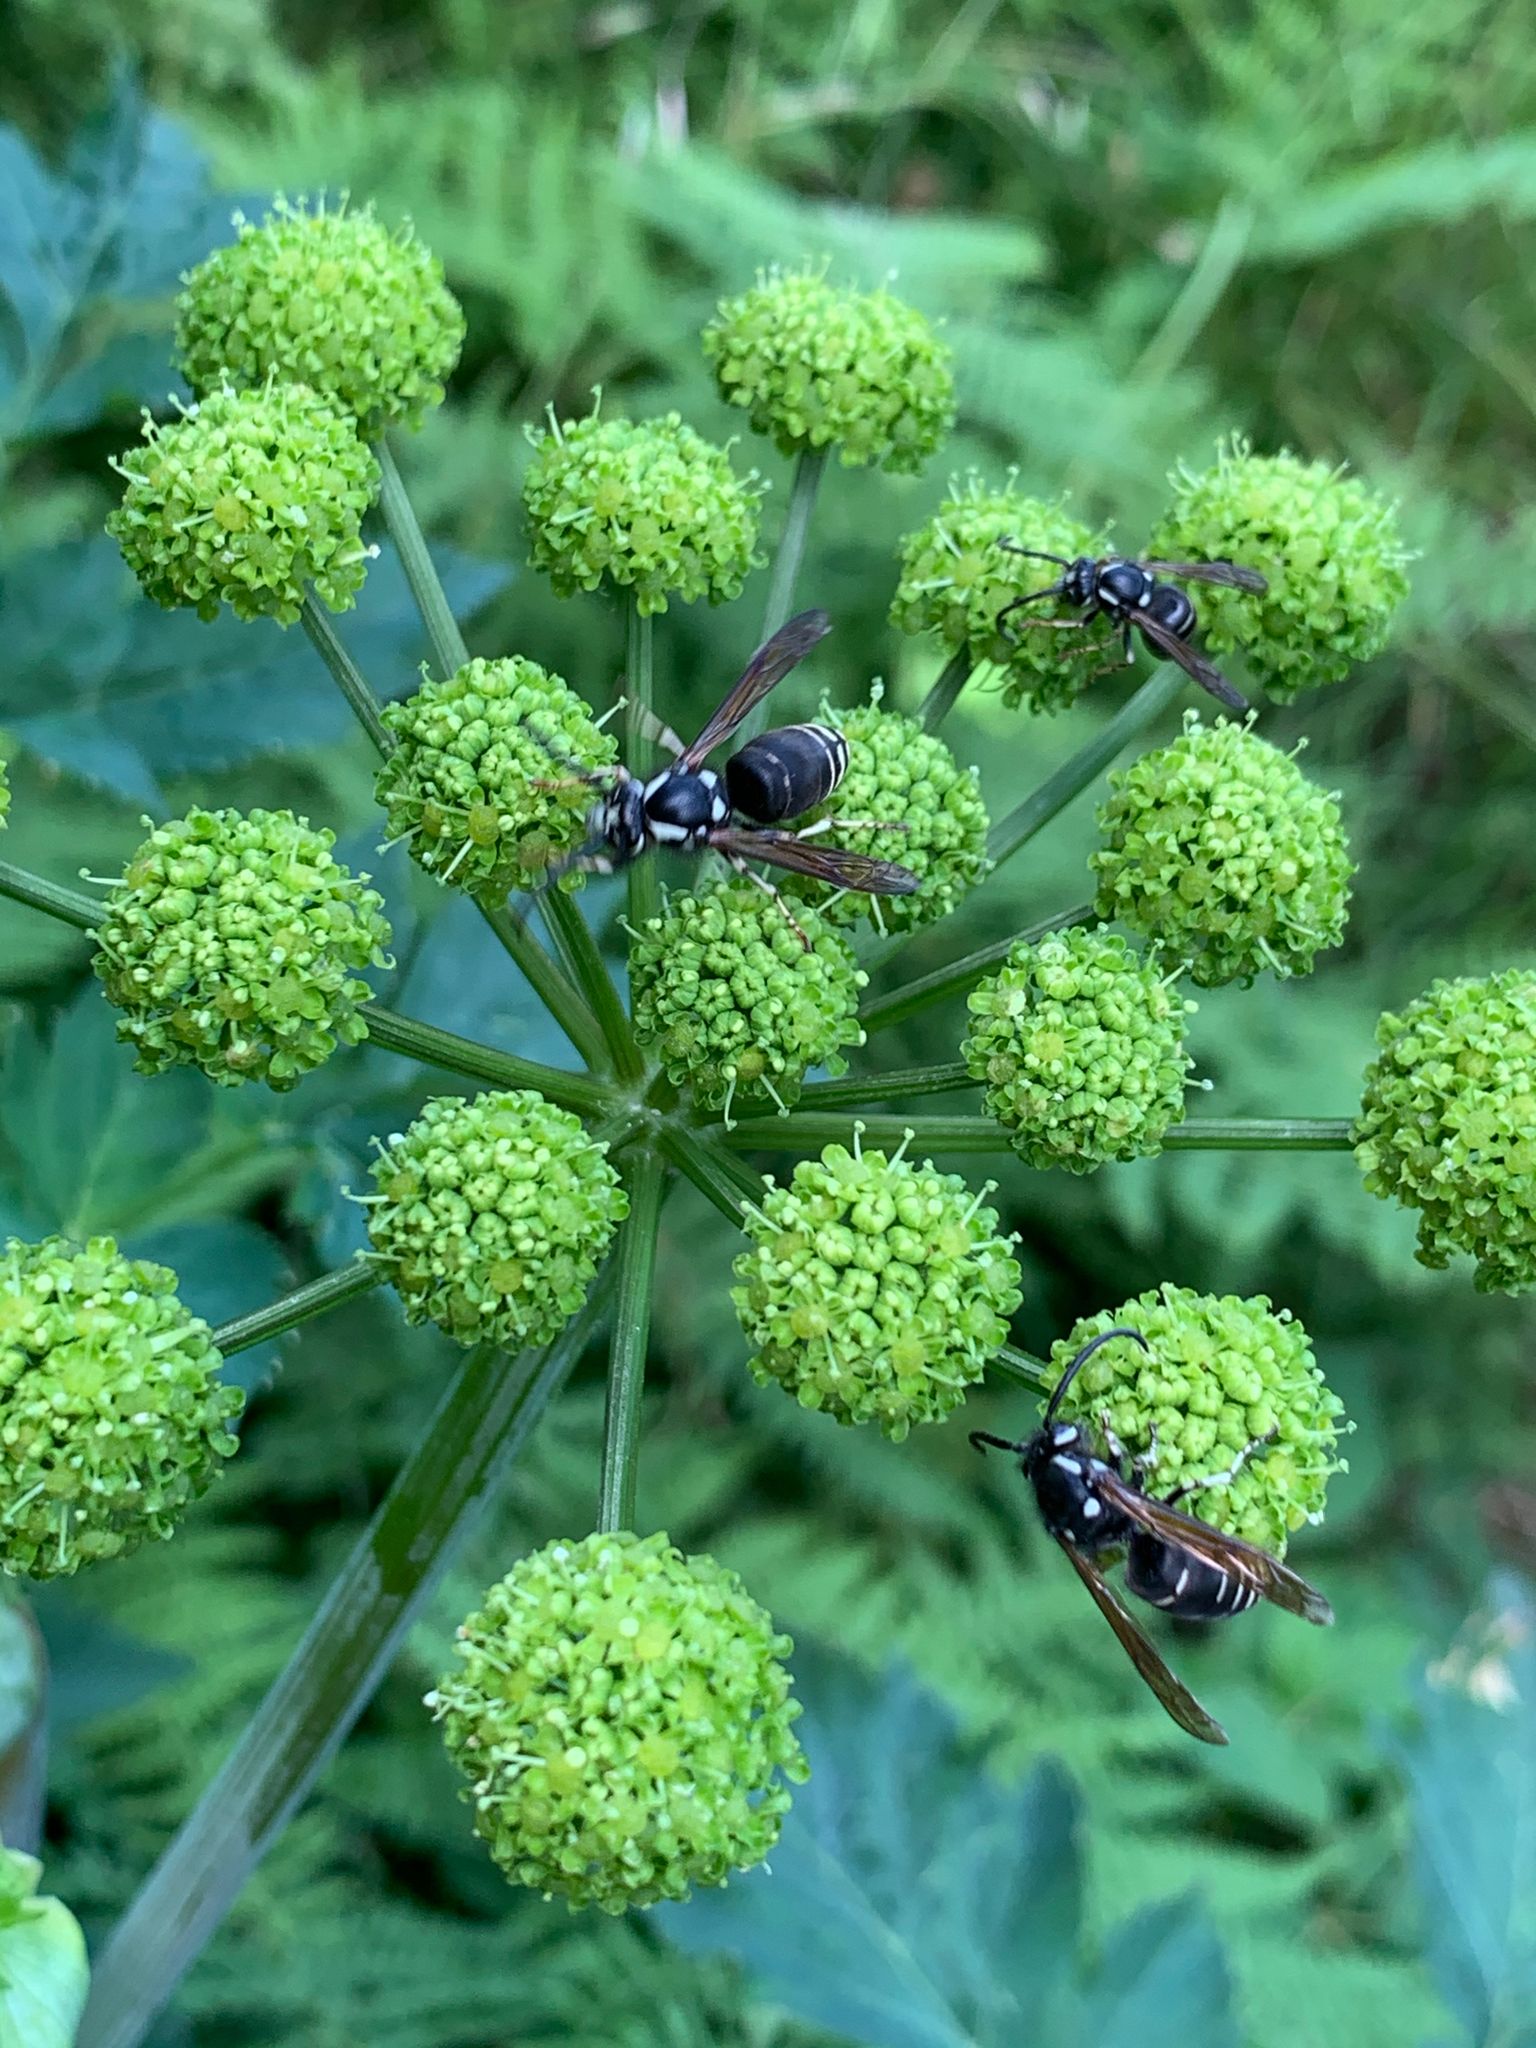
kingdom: Animalia
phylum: Arthropoda
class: Insecta
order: Hymenoptera
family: Vespidae
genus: Dolichovespula
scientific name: Dolichovespula adulterina
